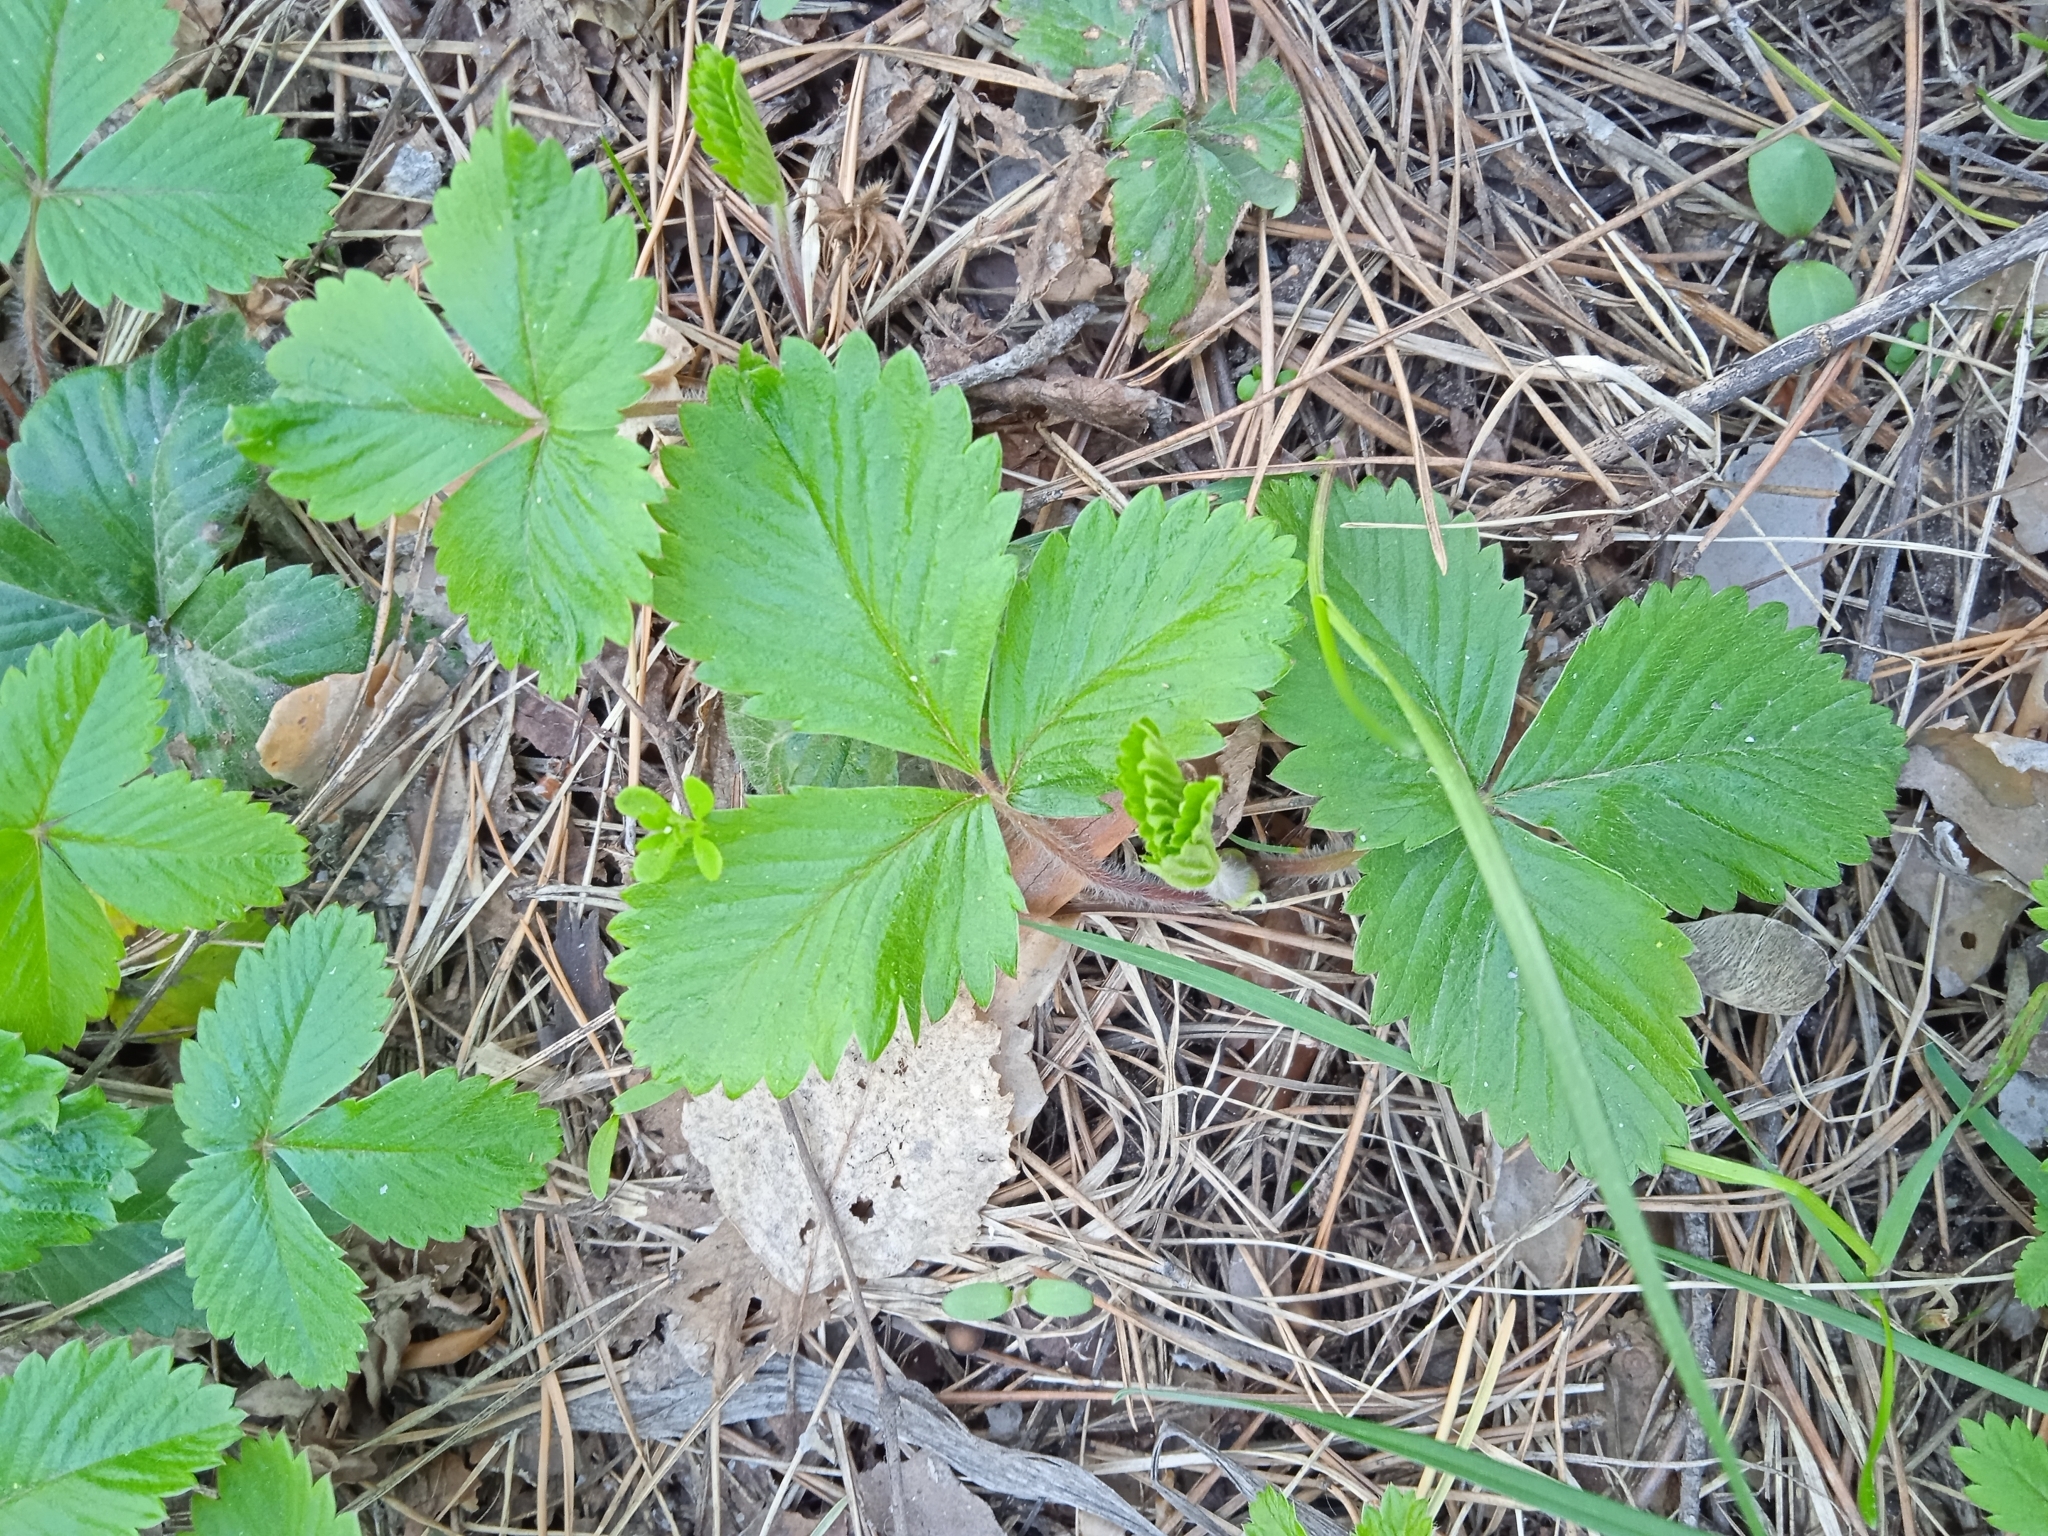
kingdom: Plantae
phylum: Tracheophyta
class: Magnoliopsida
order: Rosales
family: Rosaceae
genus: Fragaria
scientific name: Fragaria vesca
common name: Wild strawberry
